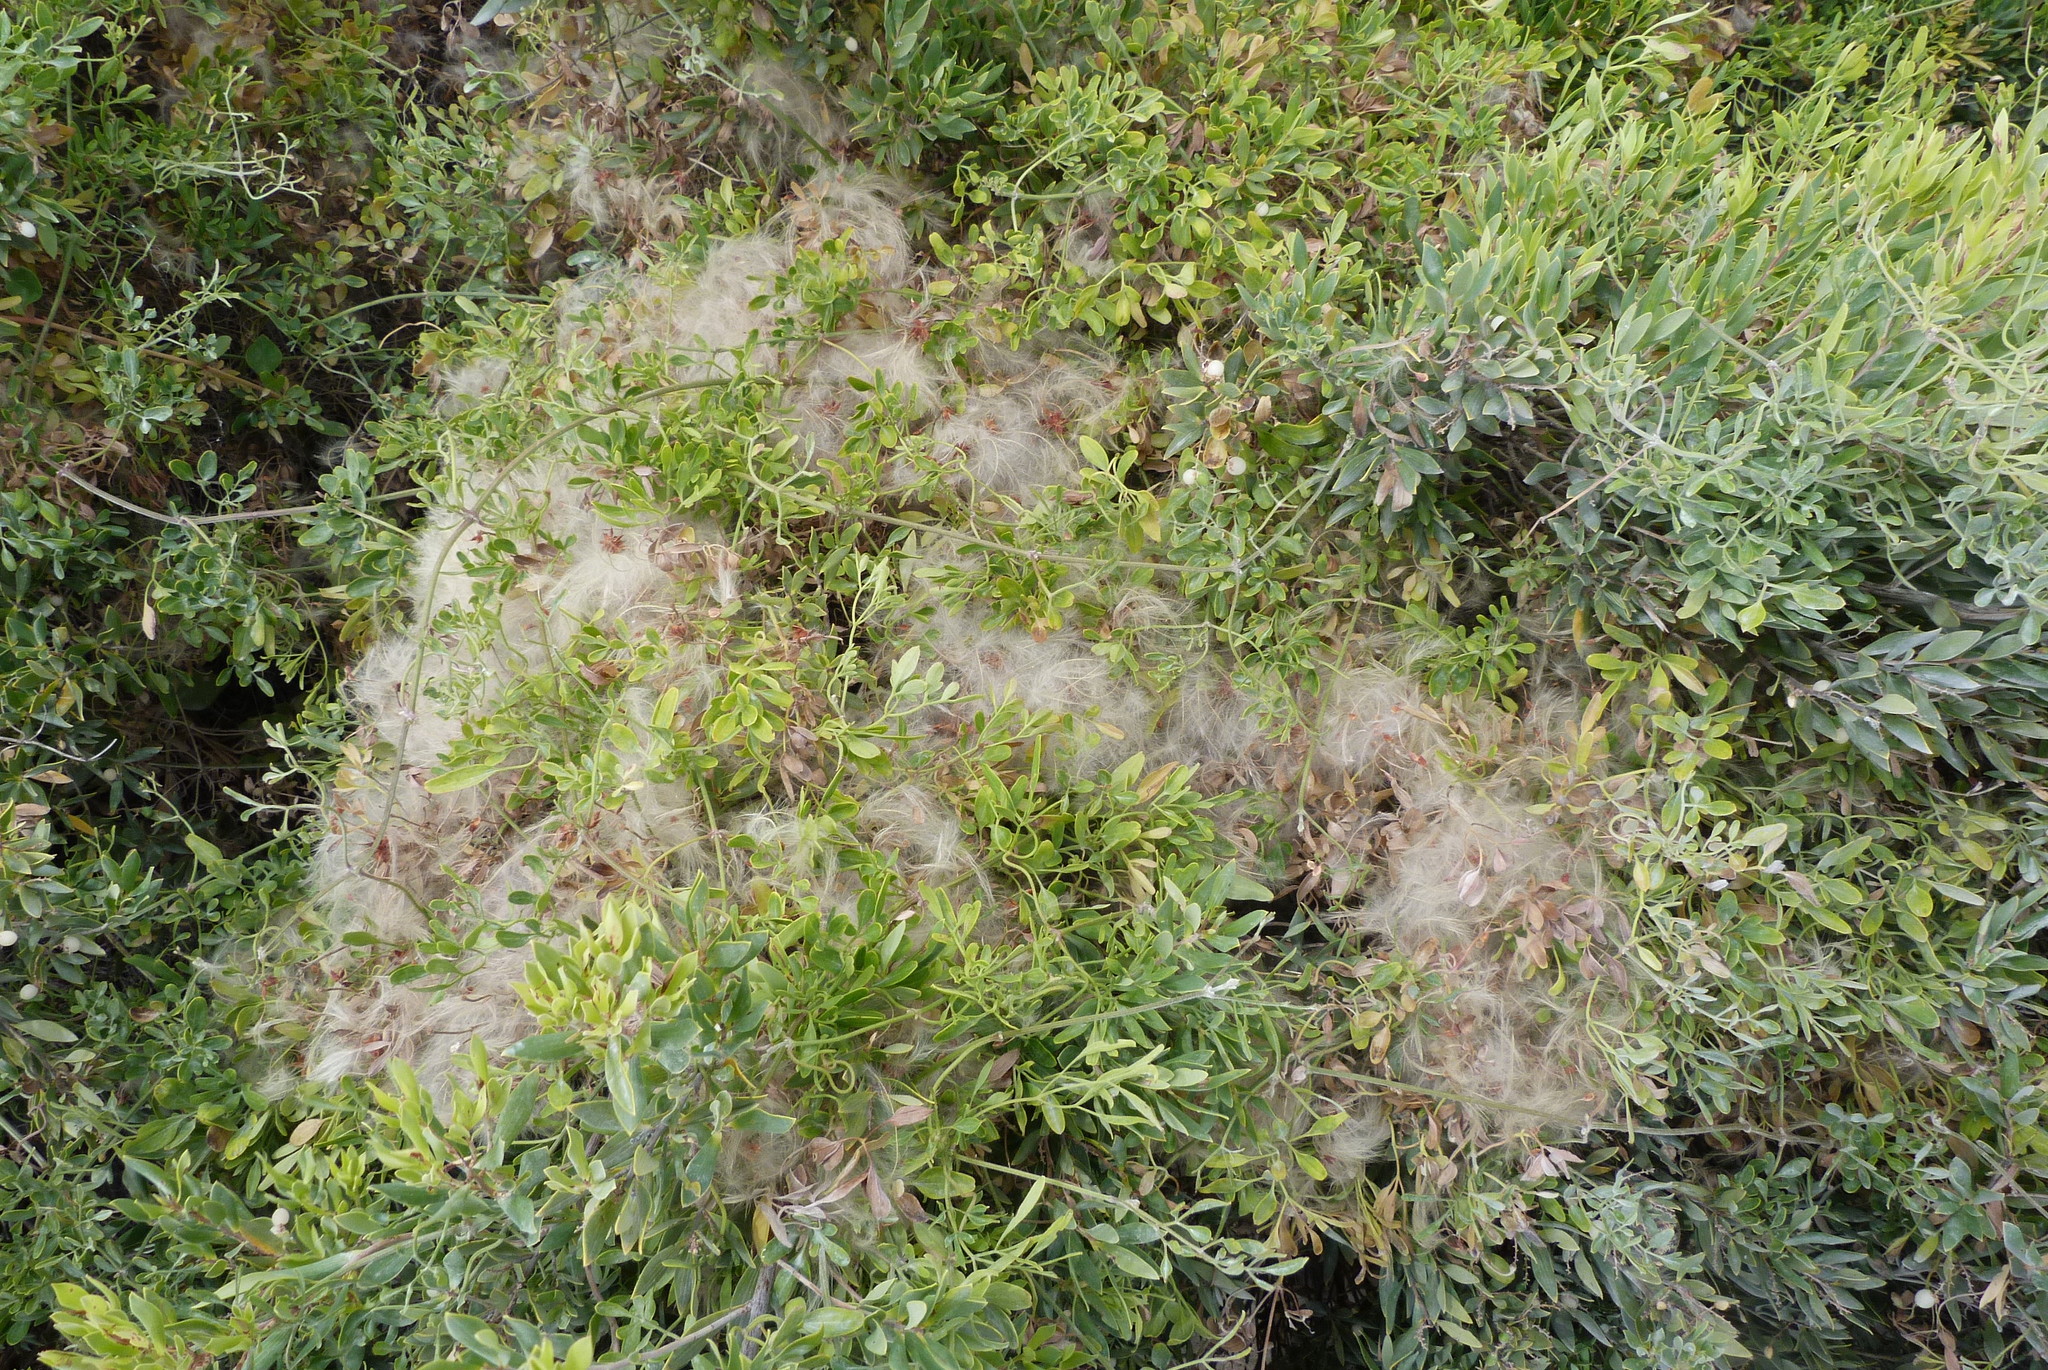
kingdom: Plantae
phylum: Tracheophyta
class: Magnoliopsida
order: Ranunculales
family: Ranunculaceae
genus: Clematis
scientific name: Clematis microphylla
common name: Headachevine
